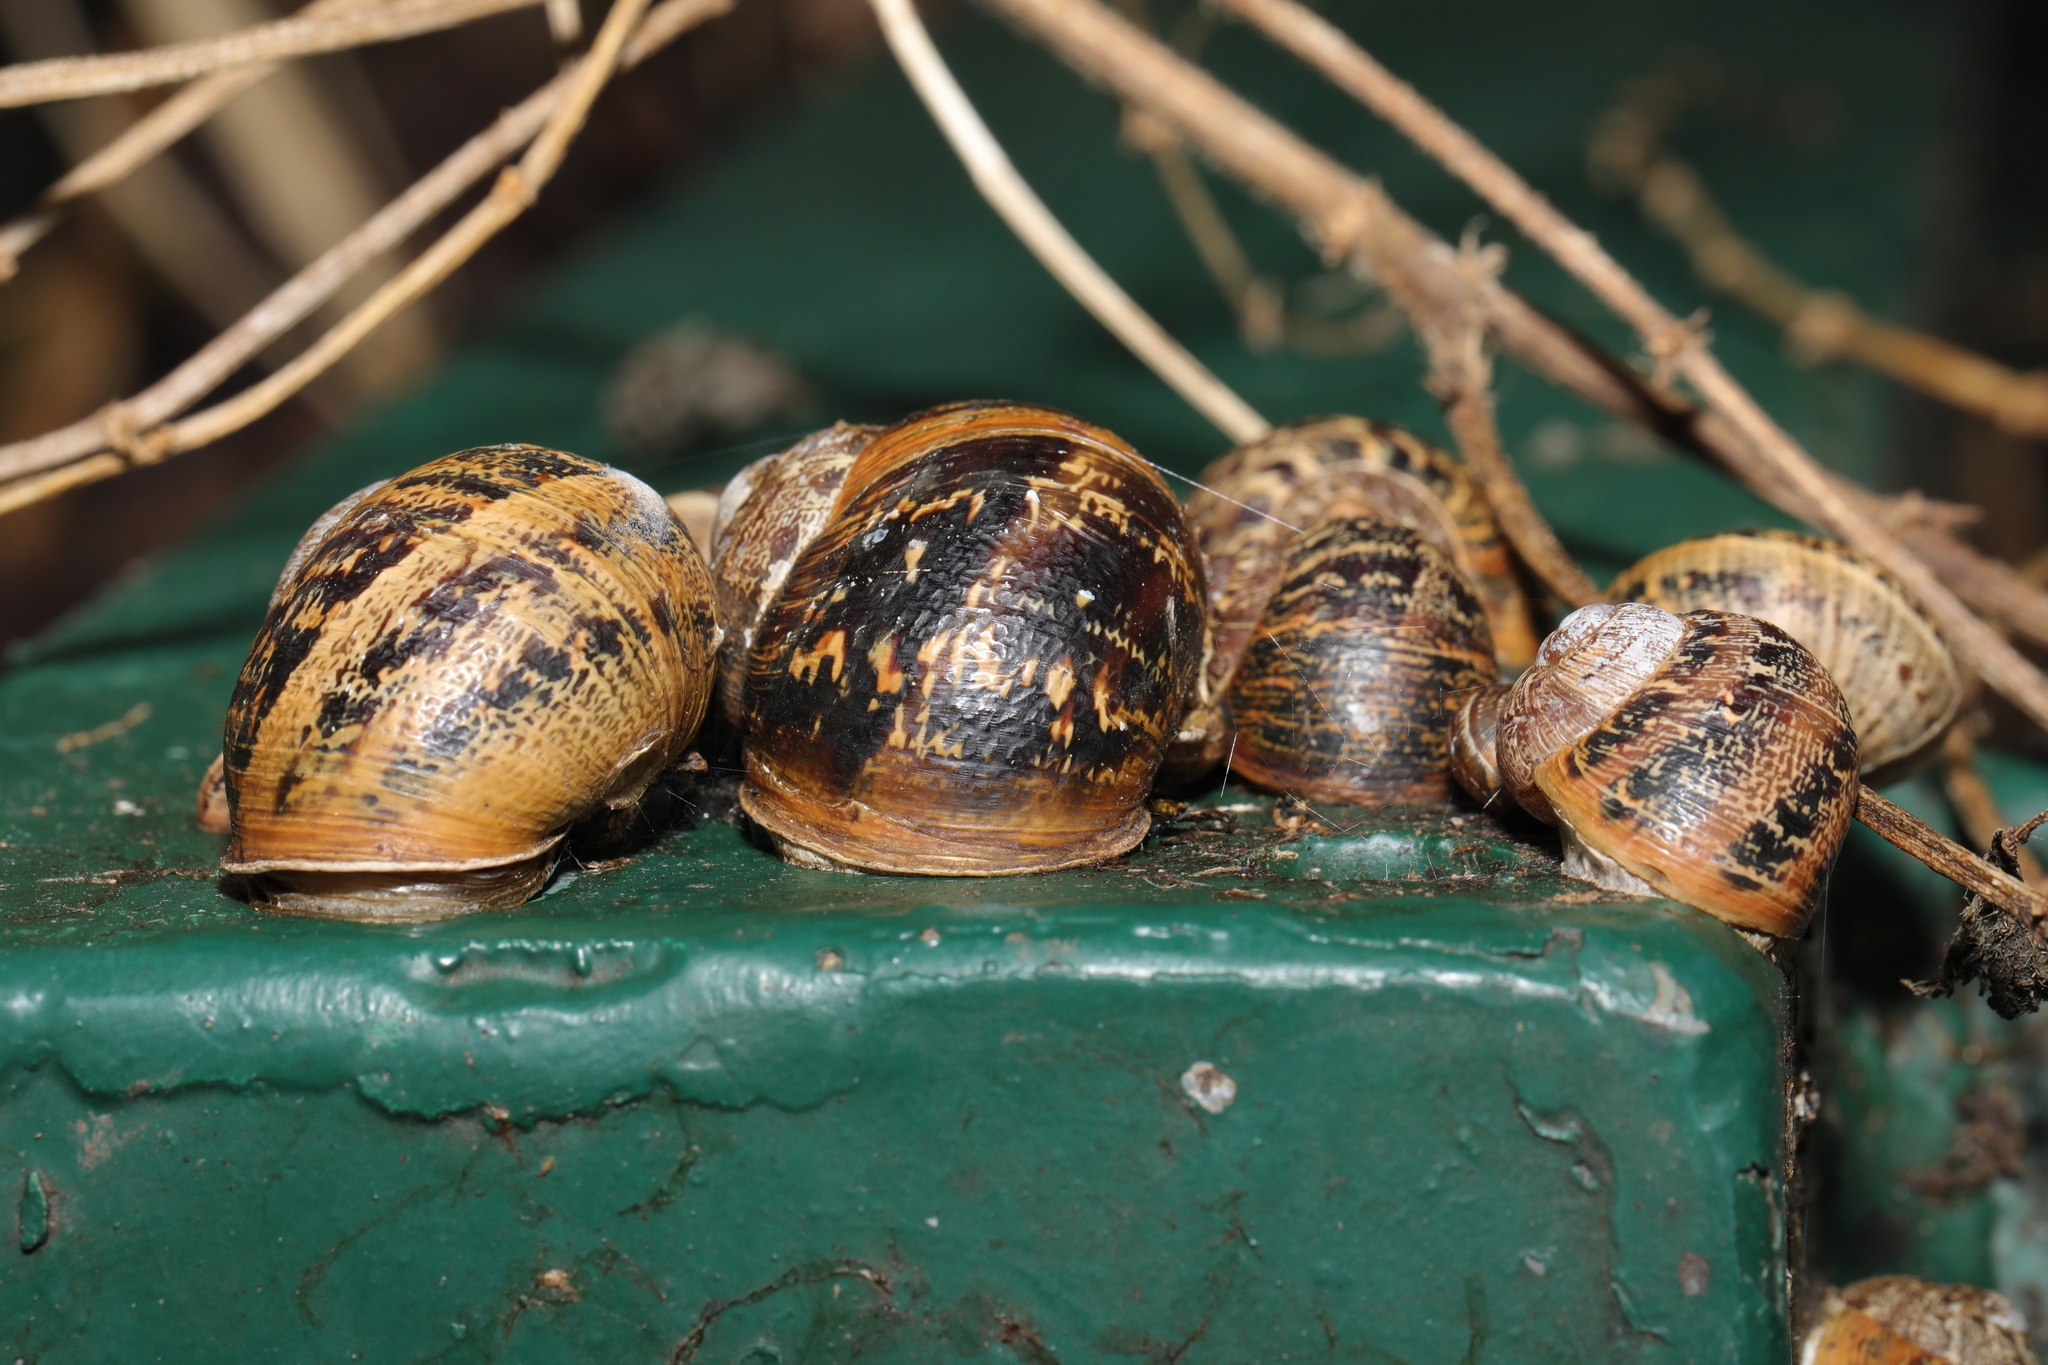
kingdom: Animalia
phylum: Mollusca
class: Gastropoda
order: Stylommatophora
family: Helicidae
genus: Cornu
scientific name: Cornu aspersum
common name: Brown garden snail
